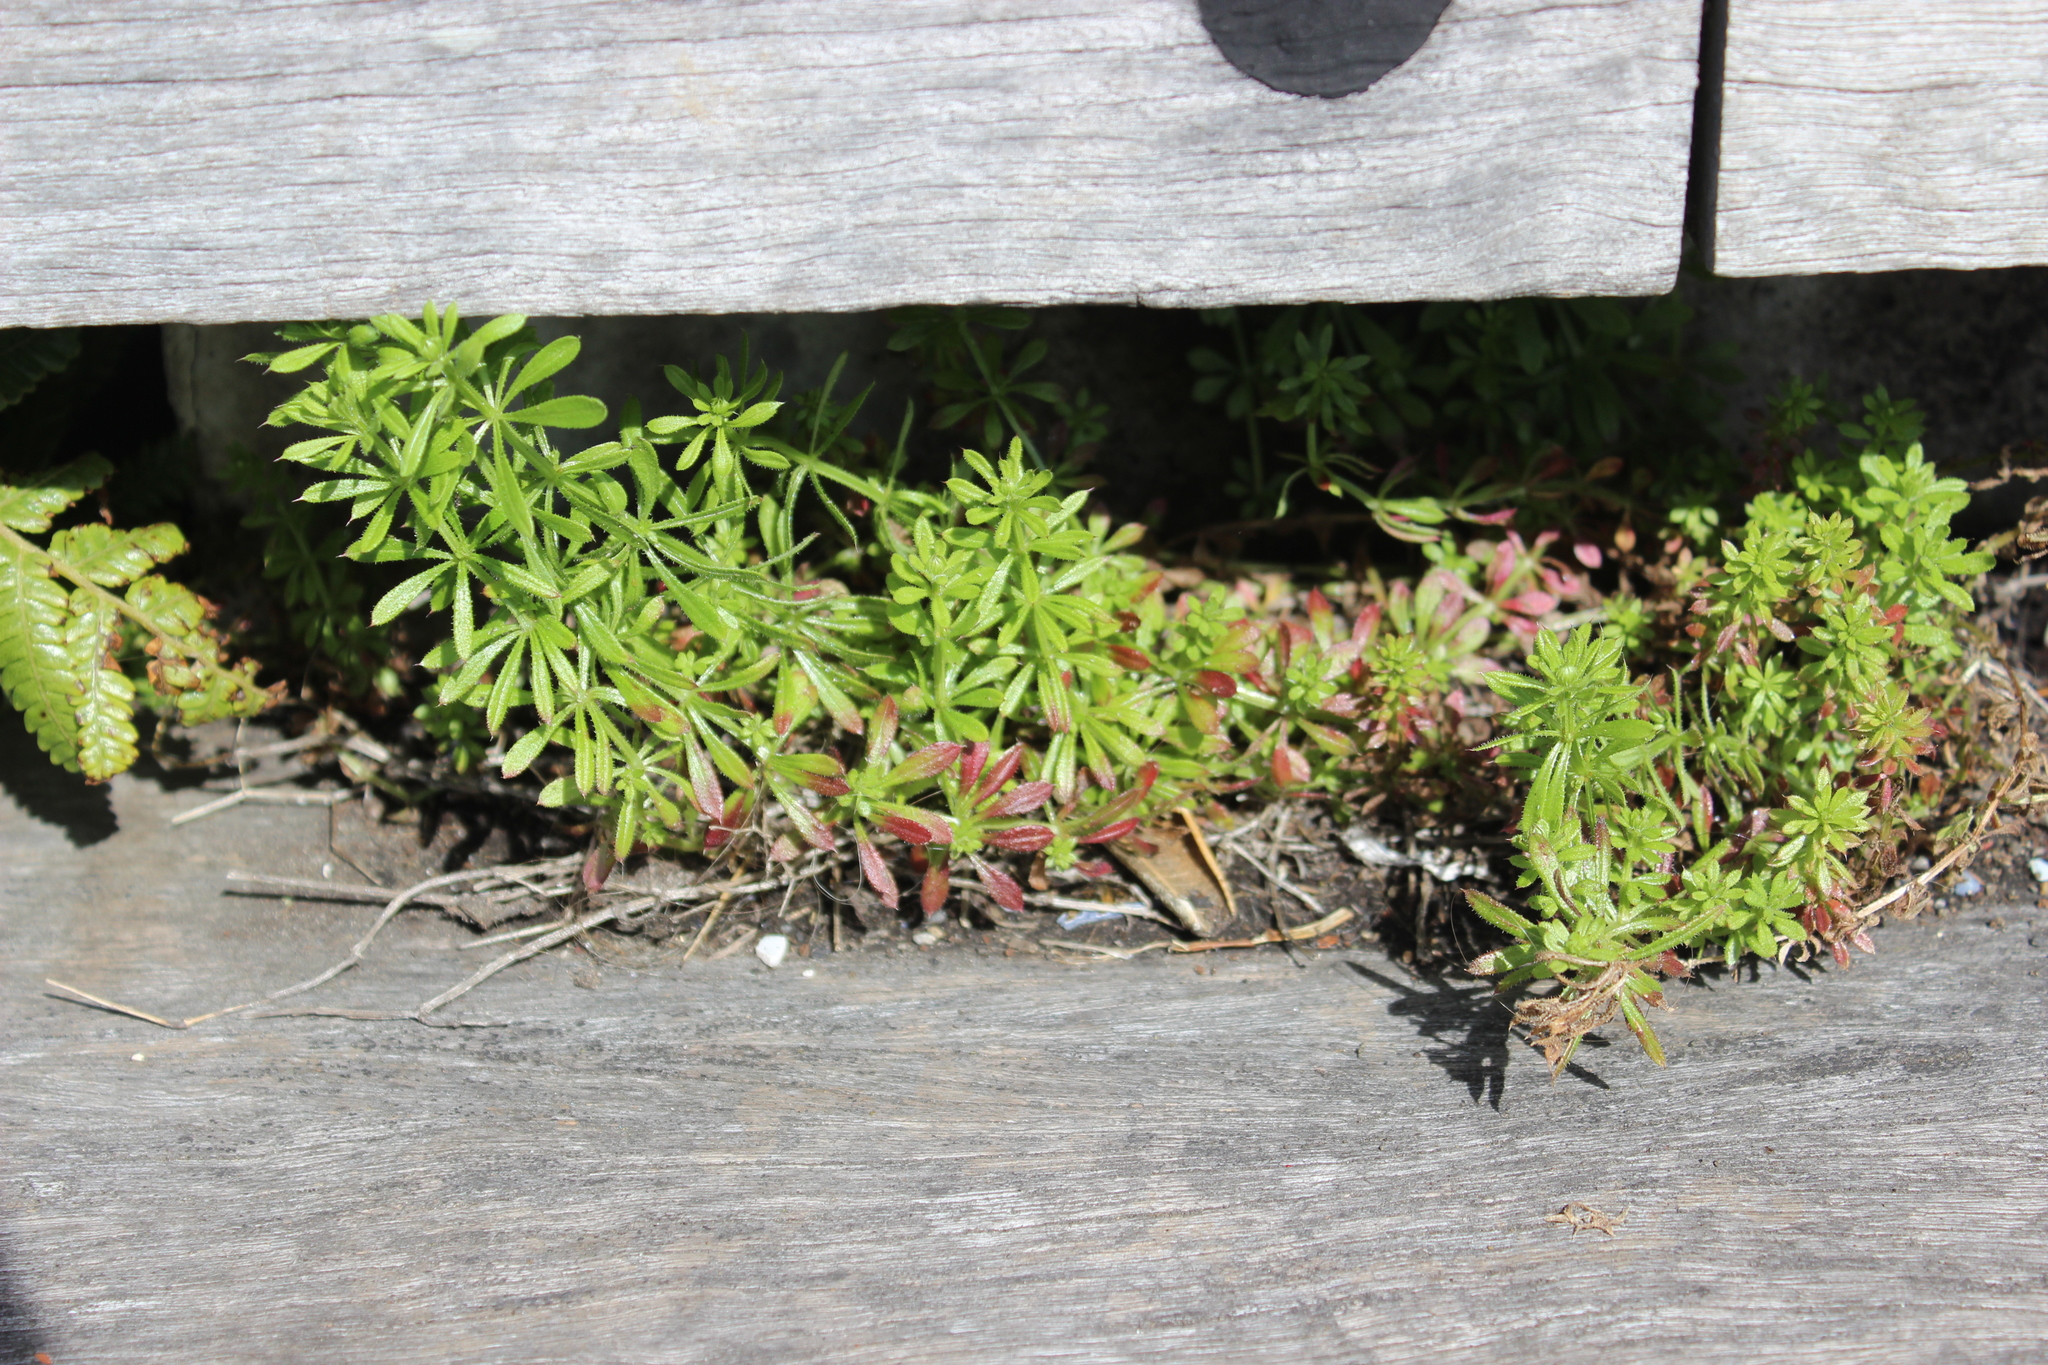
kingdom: Plantae
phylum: Tracheophyta
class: Magnoliopsida
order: Gentianales
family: Rubiaceae
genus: Galium
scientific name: Galium aparine
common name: Cleavers
